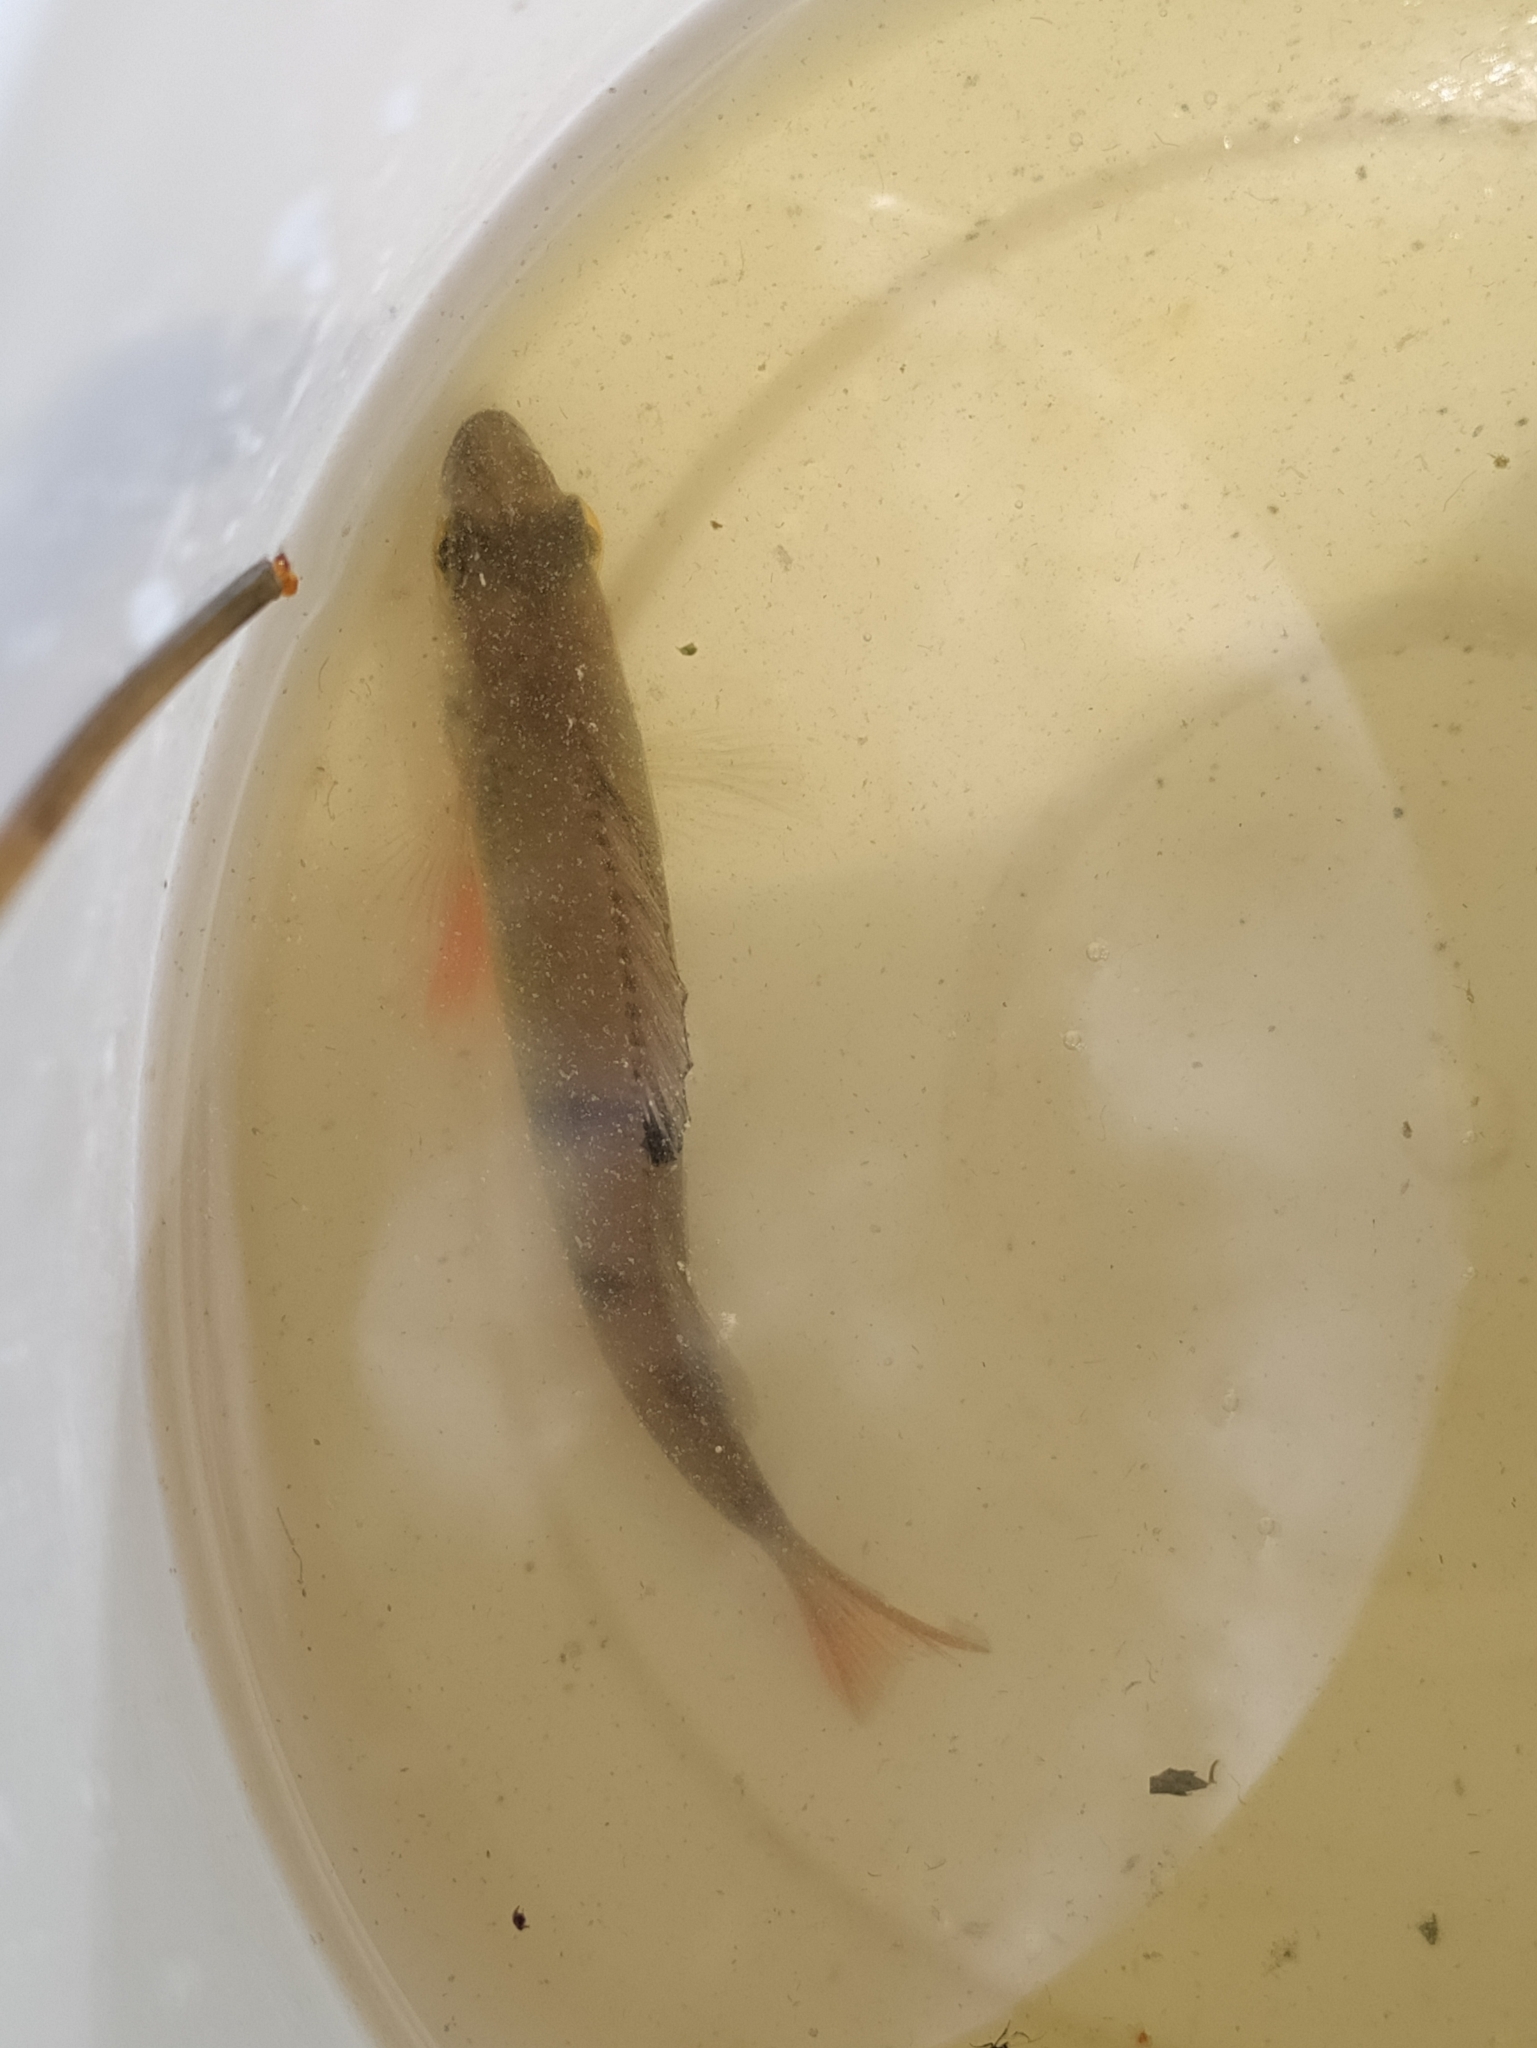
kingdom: Animalia
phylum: Chordata
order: Perciformes
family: Percidae
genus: Perca
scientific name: Perca fluviatilis
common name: Perch
